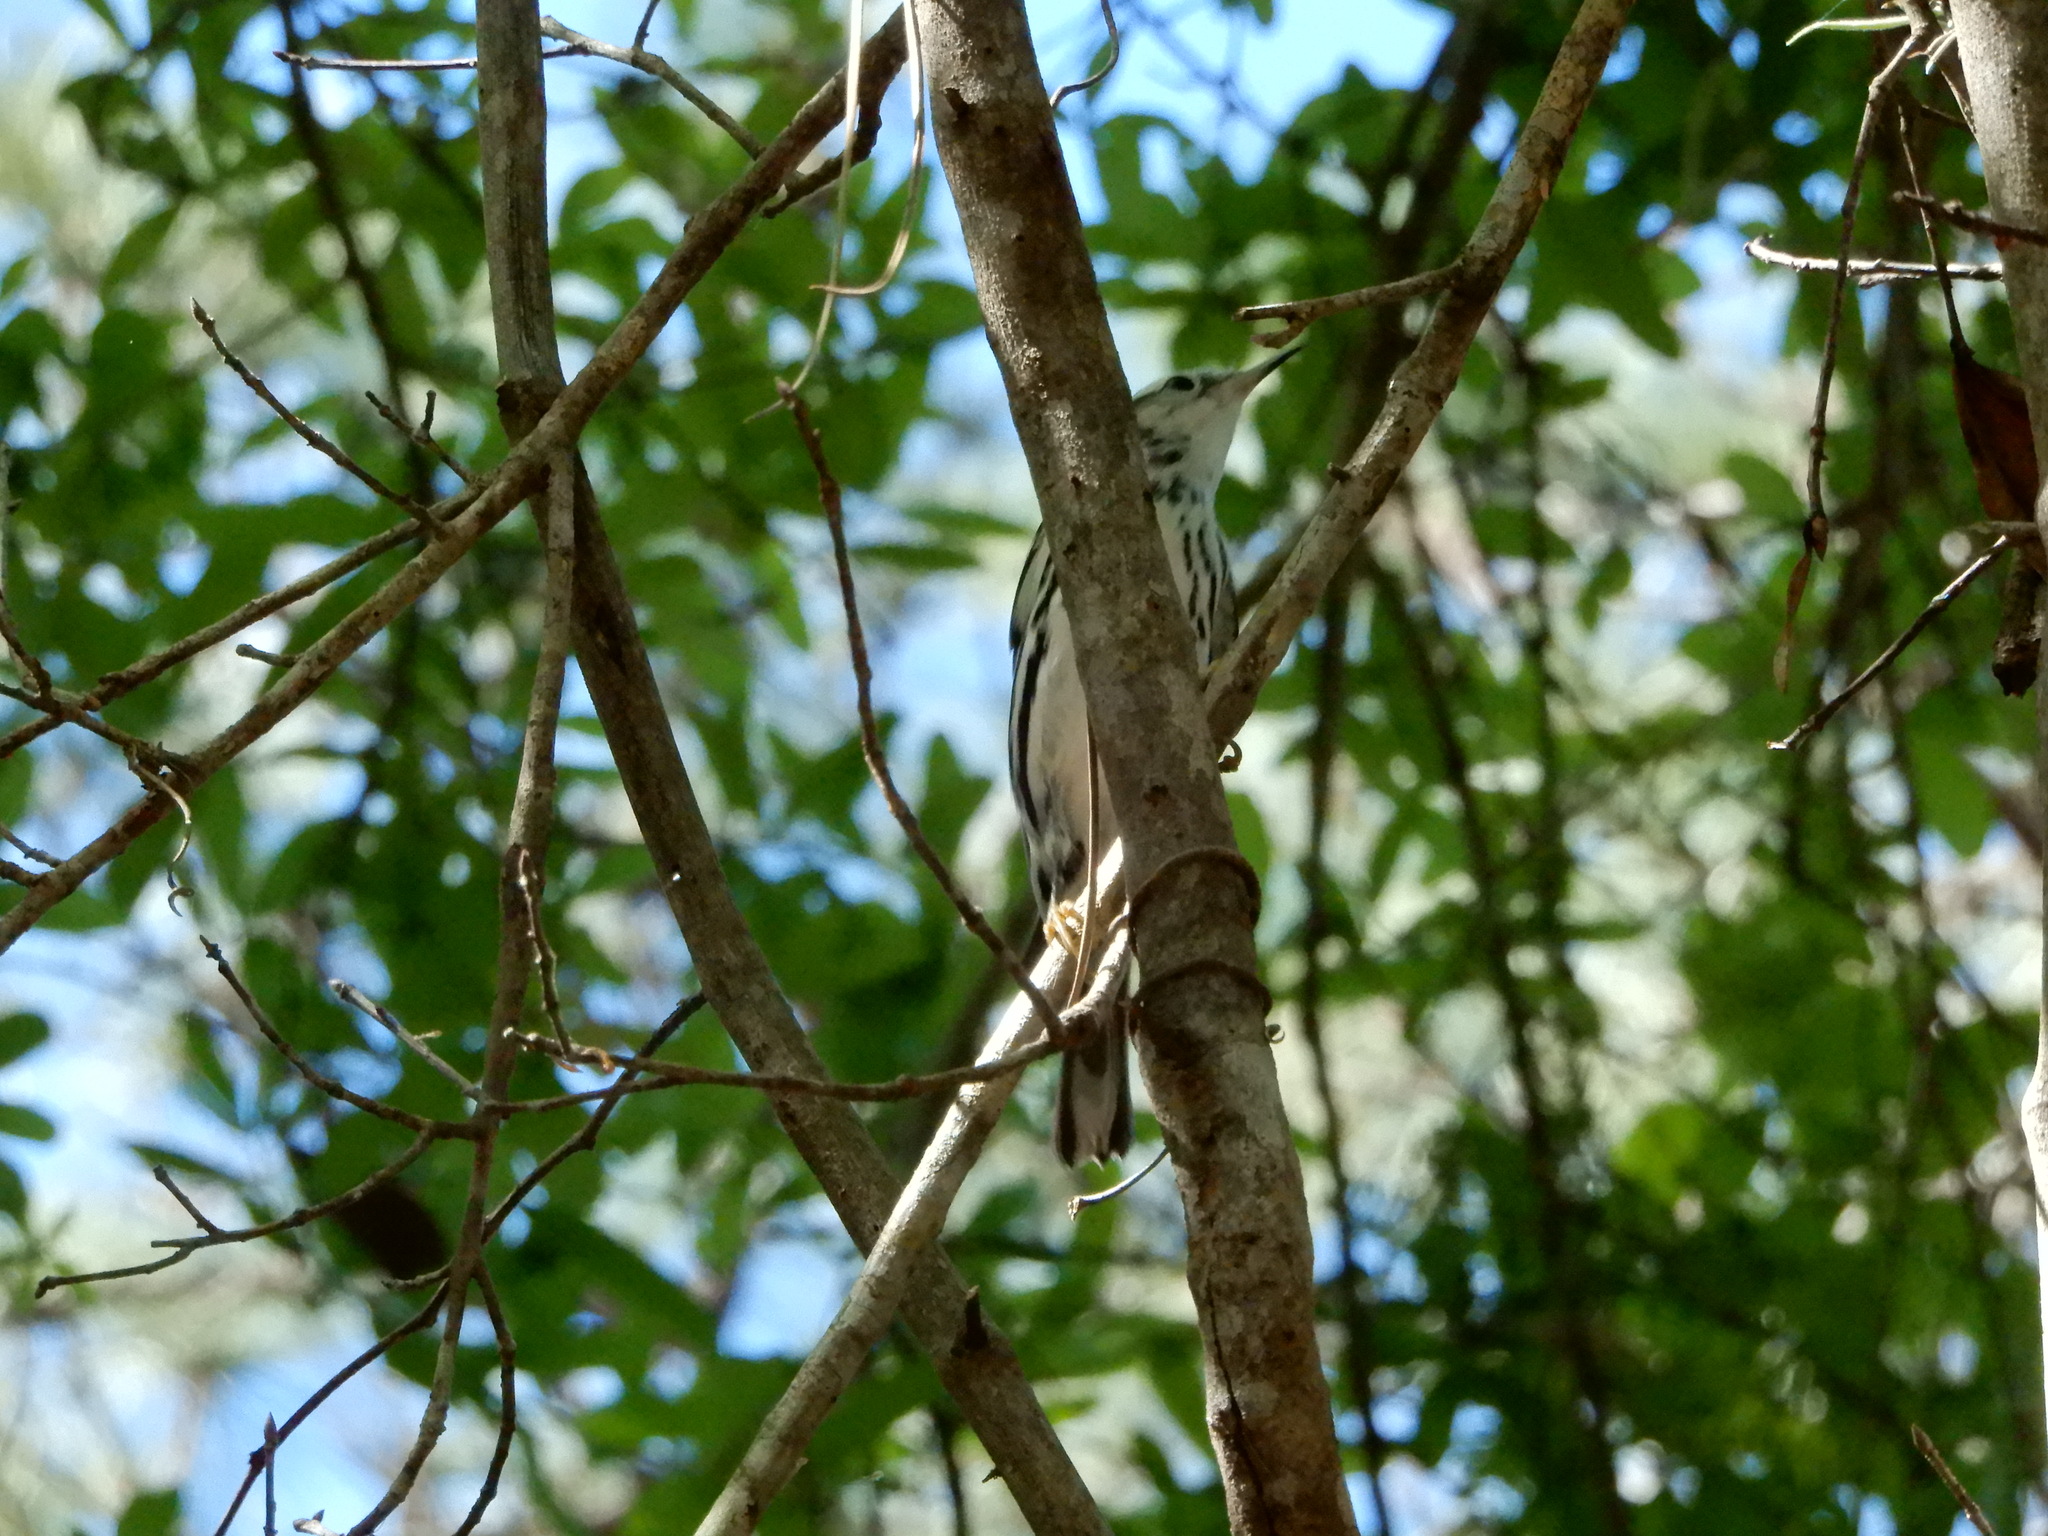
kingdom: Animalia
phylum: Chordata
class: Aves
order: Passeriformes
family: Parulidae
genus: Mniotilta
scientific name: Mniotilta varia
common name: Black-and-white warbler
